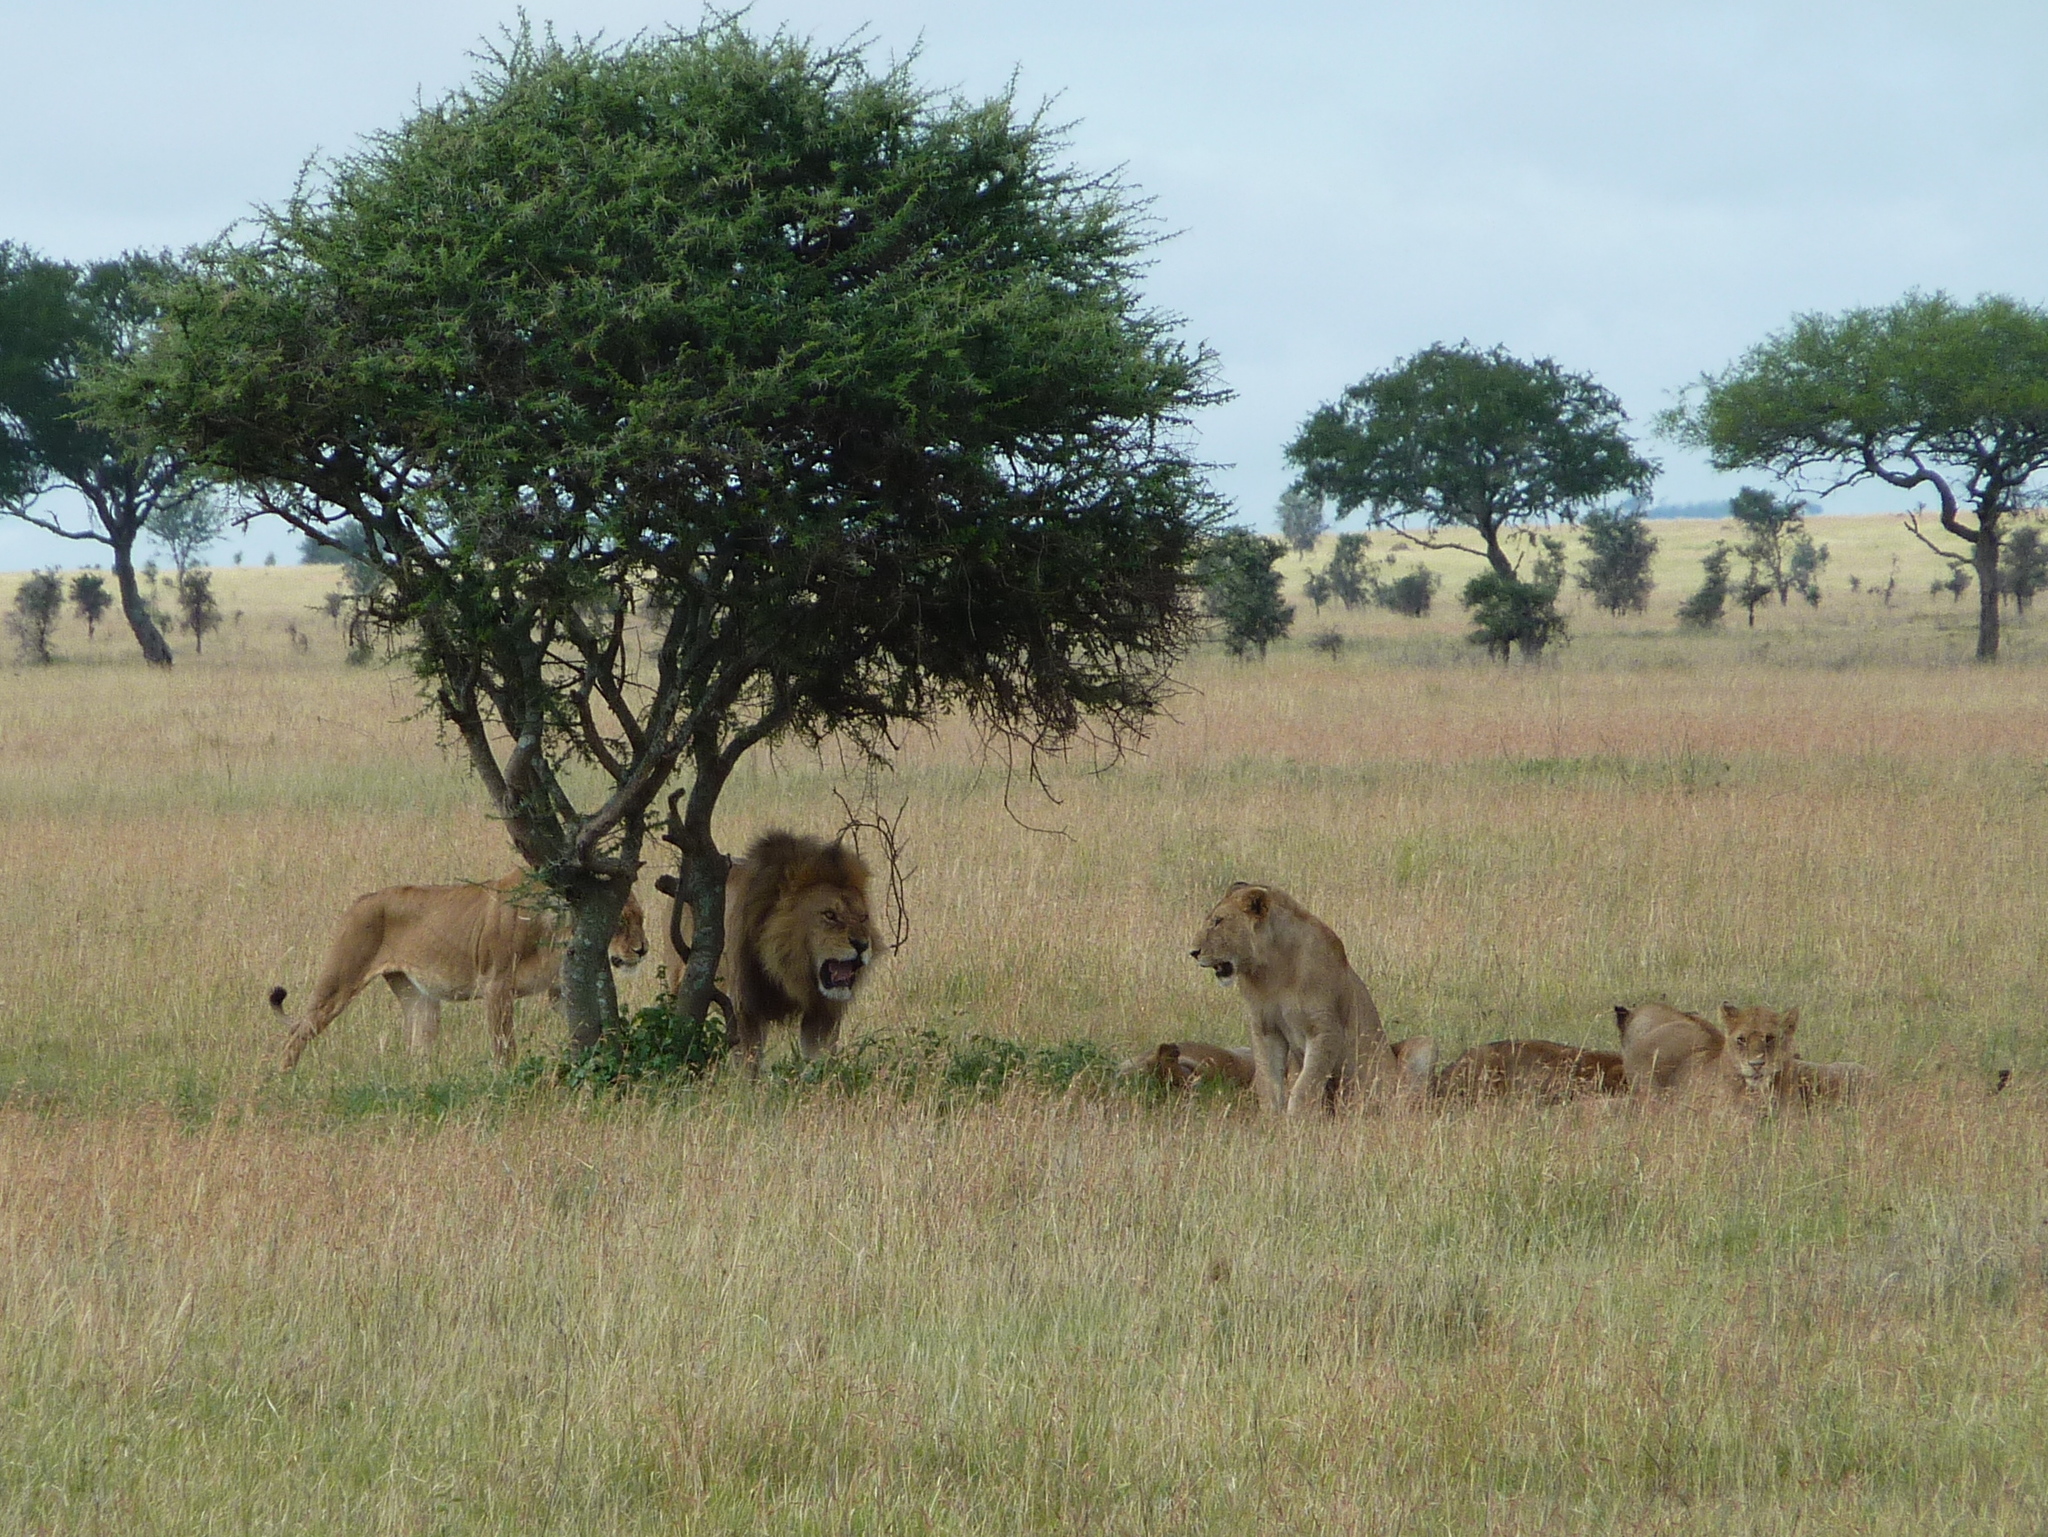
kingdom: Animalia
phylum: Chordata
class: Mammalia
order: Carnivora
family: Felidae
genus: Panthera
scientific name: Panthera leo
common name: Lion
